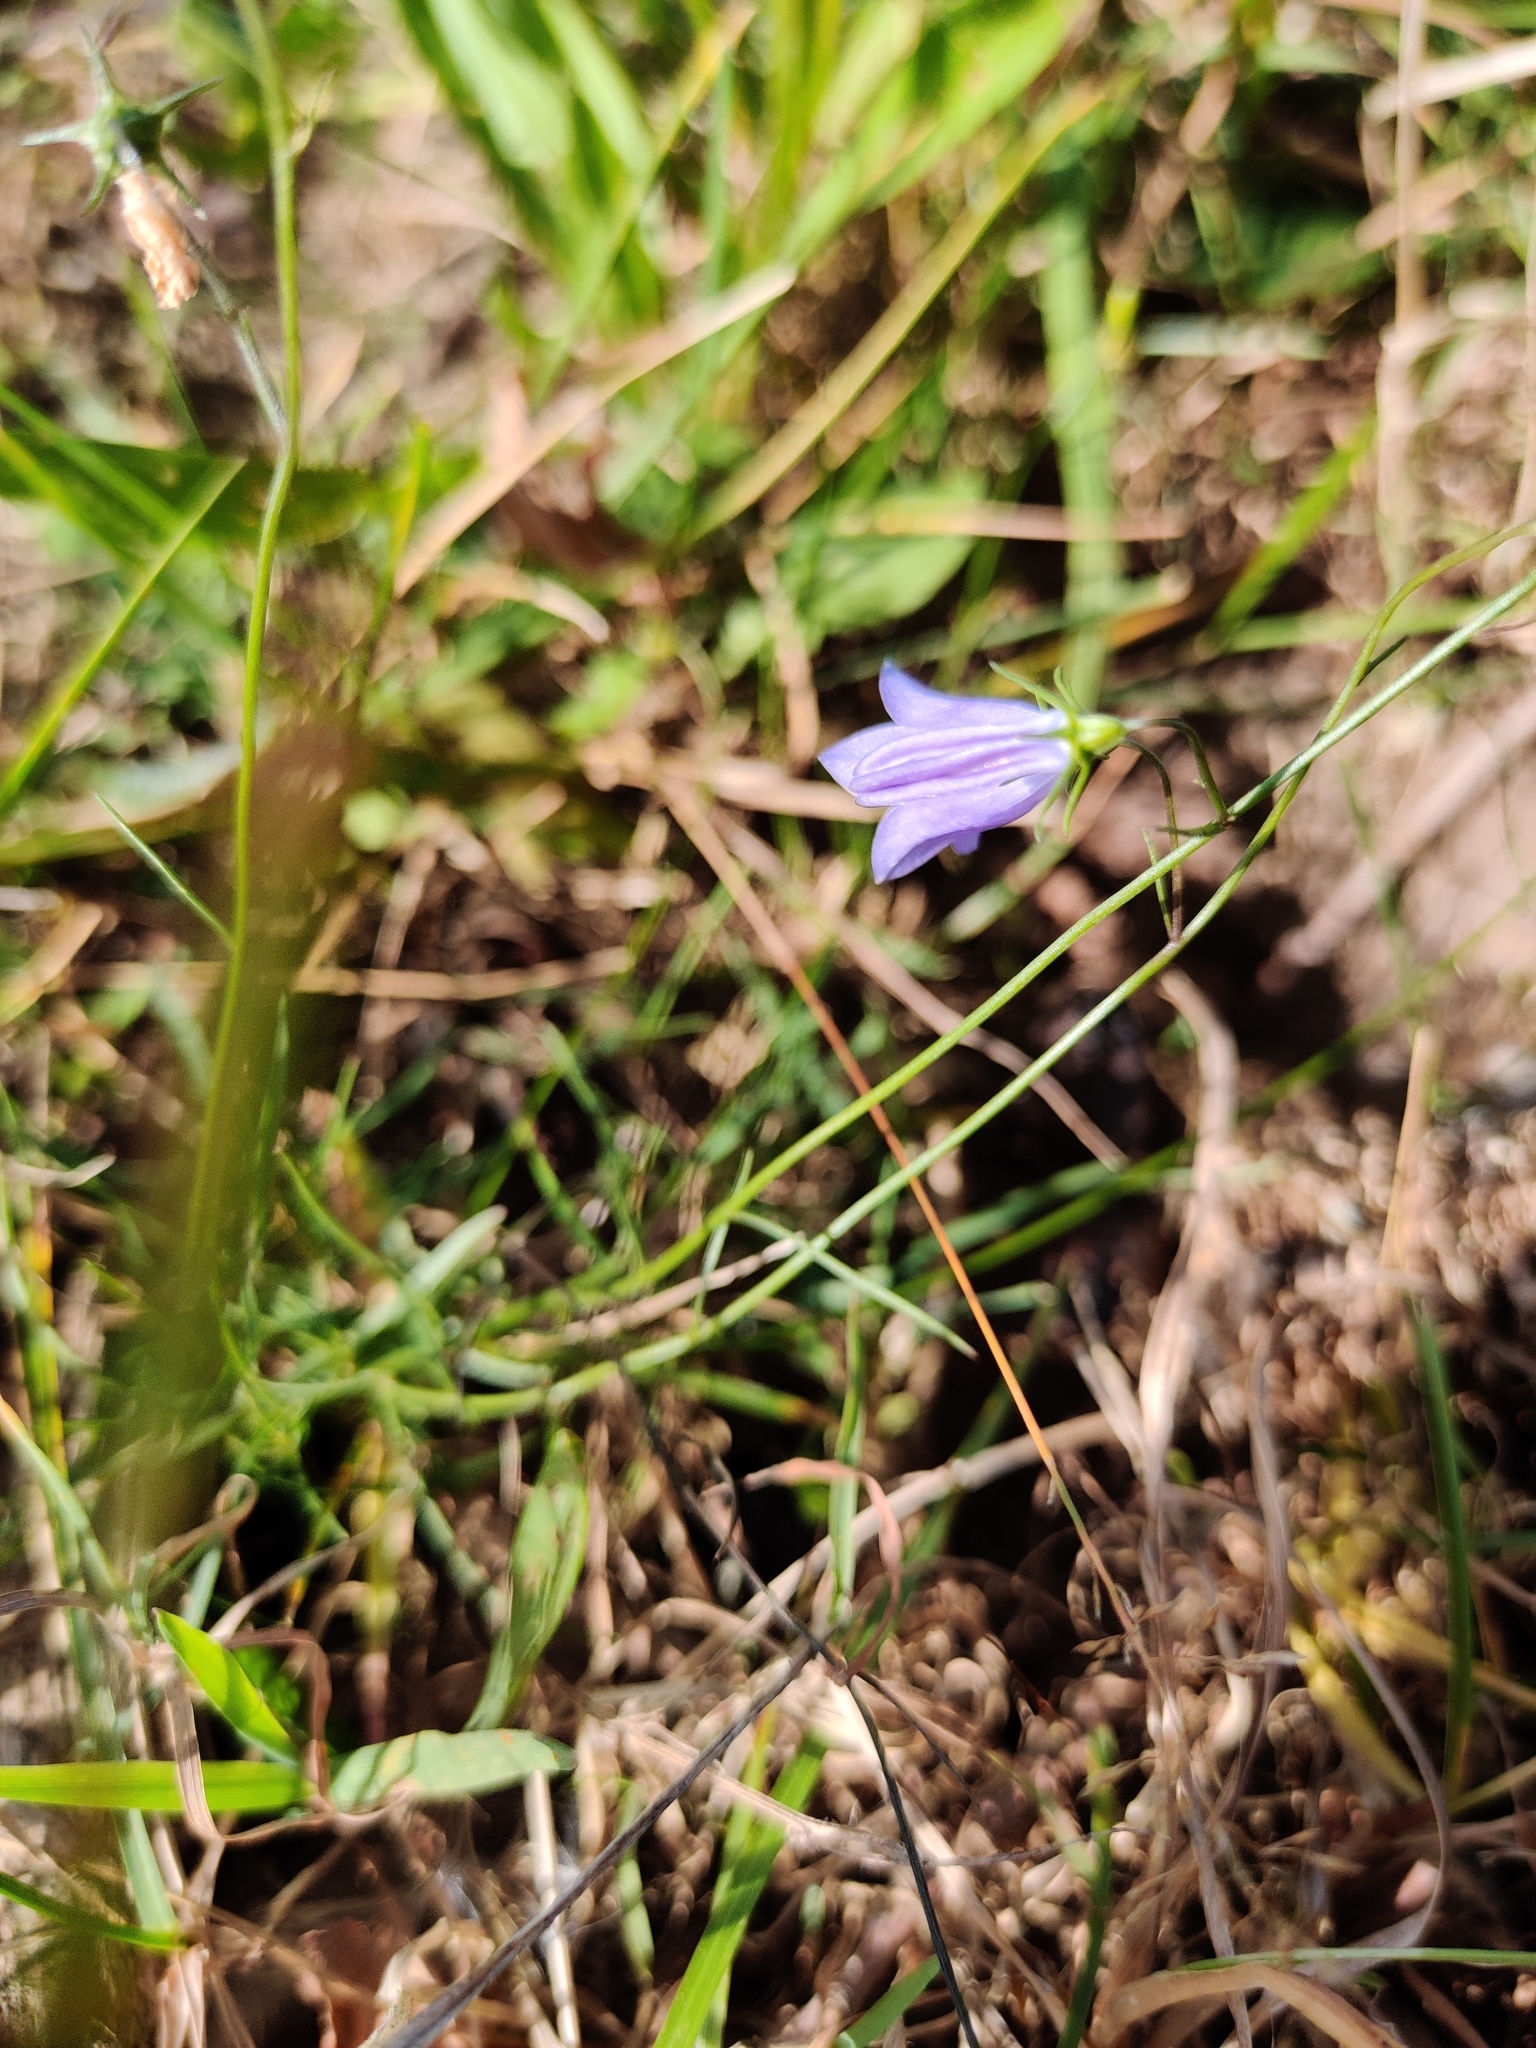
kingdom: Plantae
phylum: Tracheophyta
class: Magnoliopsida
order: Asterales
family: Campanulaceae
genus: Campanula
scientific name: Campanula rotundifolia
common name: Harebell
